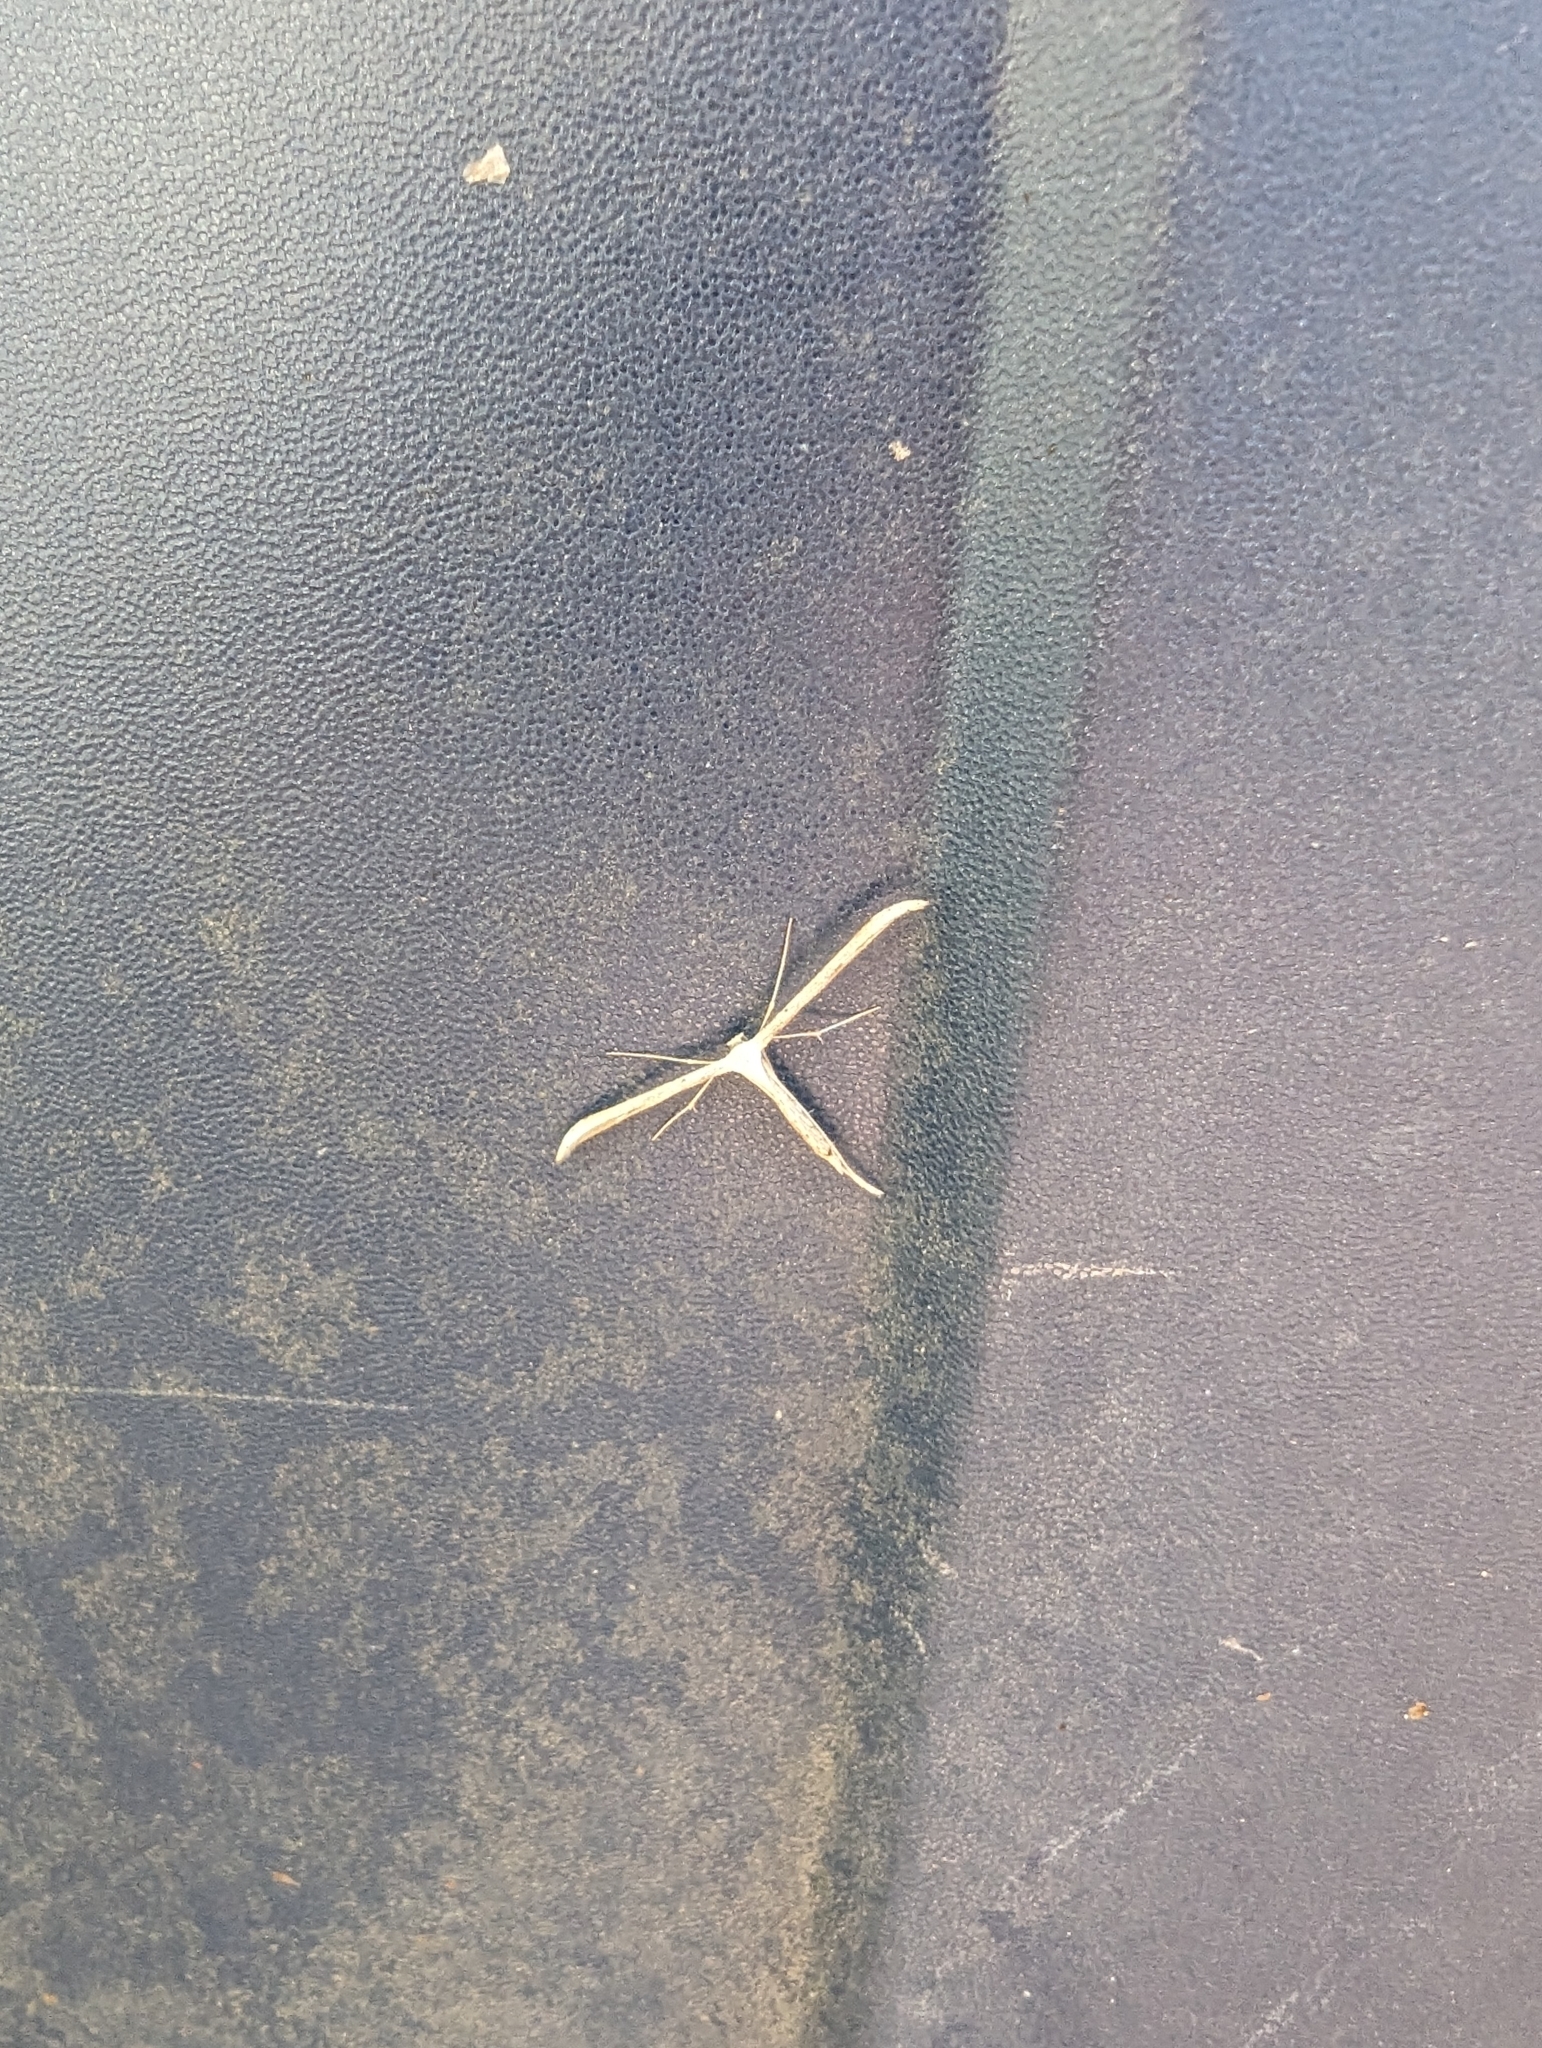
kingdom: Animalia
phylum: Arthropoda
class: Insecta
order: Lepidoptera
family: Pterophoridae
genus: Emmelina
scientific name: Emmelina monodactyla
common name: Common plume
